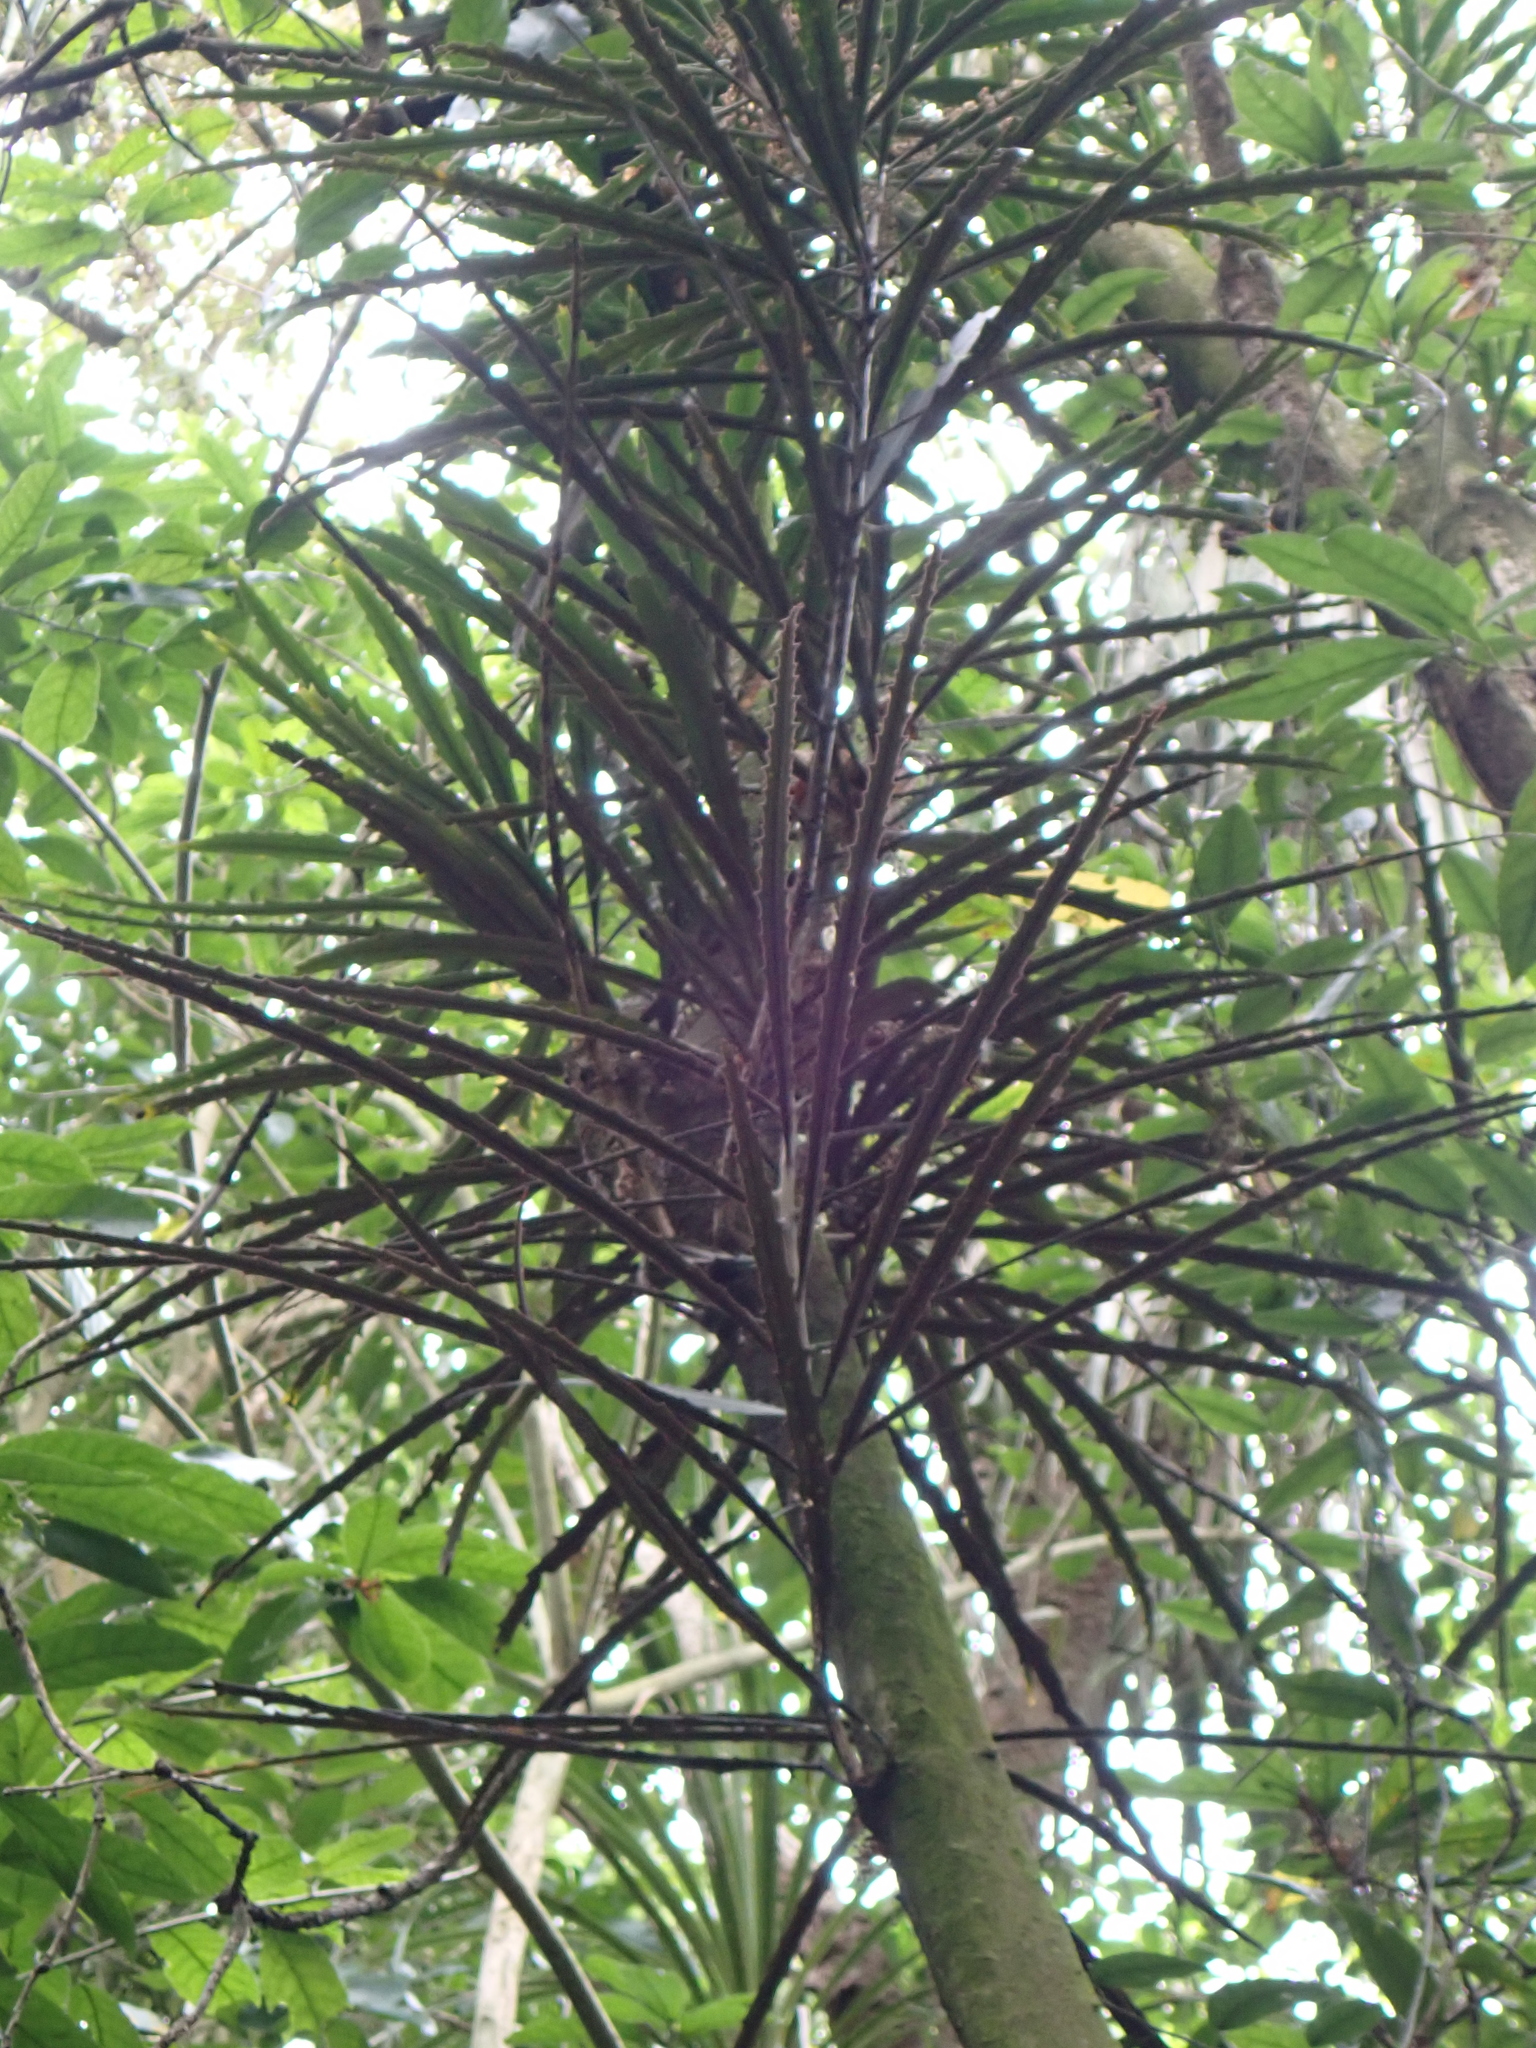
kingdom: Plantae
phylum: Tracheophyta
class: Magnoliopsida
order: Apiales
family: Araliaceae
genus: Pseudopanax
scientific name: Pseudopanax crassifolius
